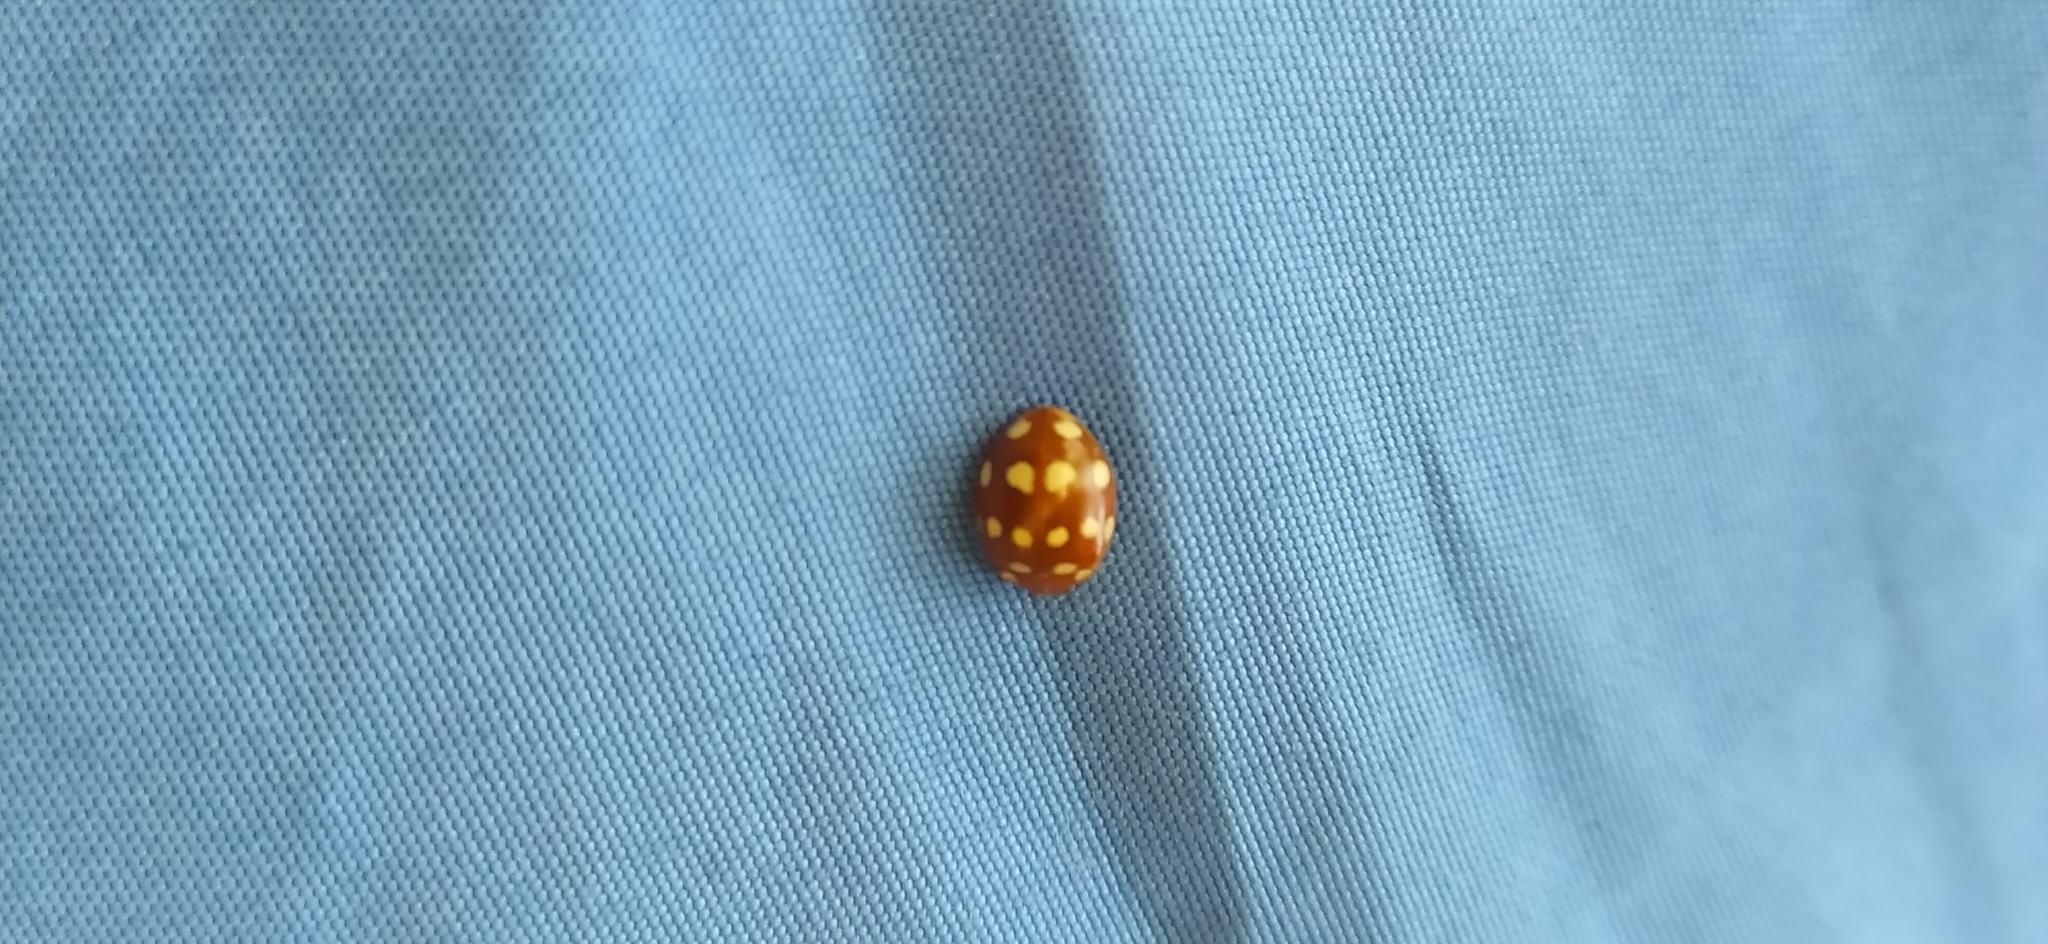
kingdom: Animalia
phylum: Arthropoda
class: Insecta
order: Coleoptera
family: Coccinellidae
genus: Calvia
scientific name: Calvia quatuordecimguttata
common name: Cream-spot ladybird
